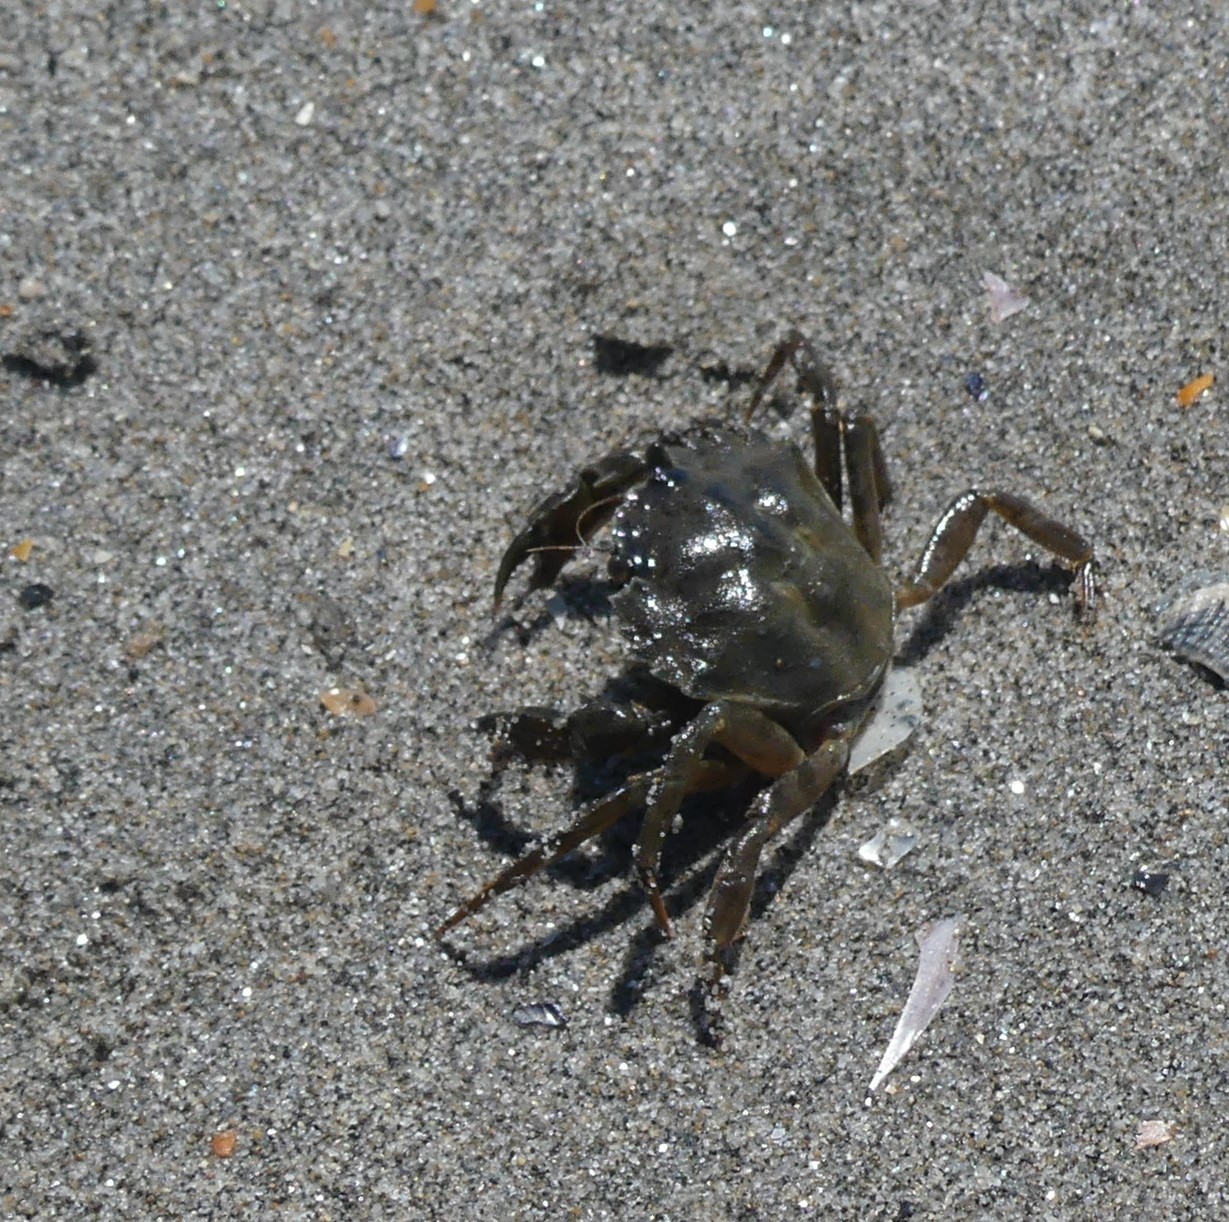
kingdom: Animalia
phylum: Arthropoda
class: Malacostraca
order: Decapoda
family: Carcinidae
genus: Carcinus
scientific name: Carcinus aestuarii
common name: Mediterranean green crab
